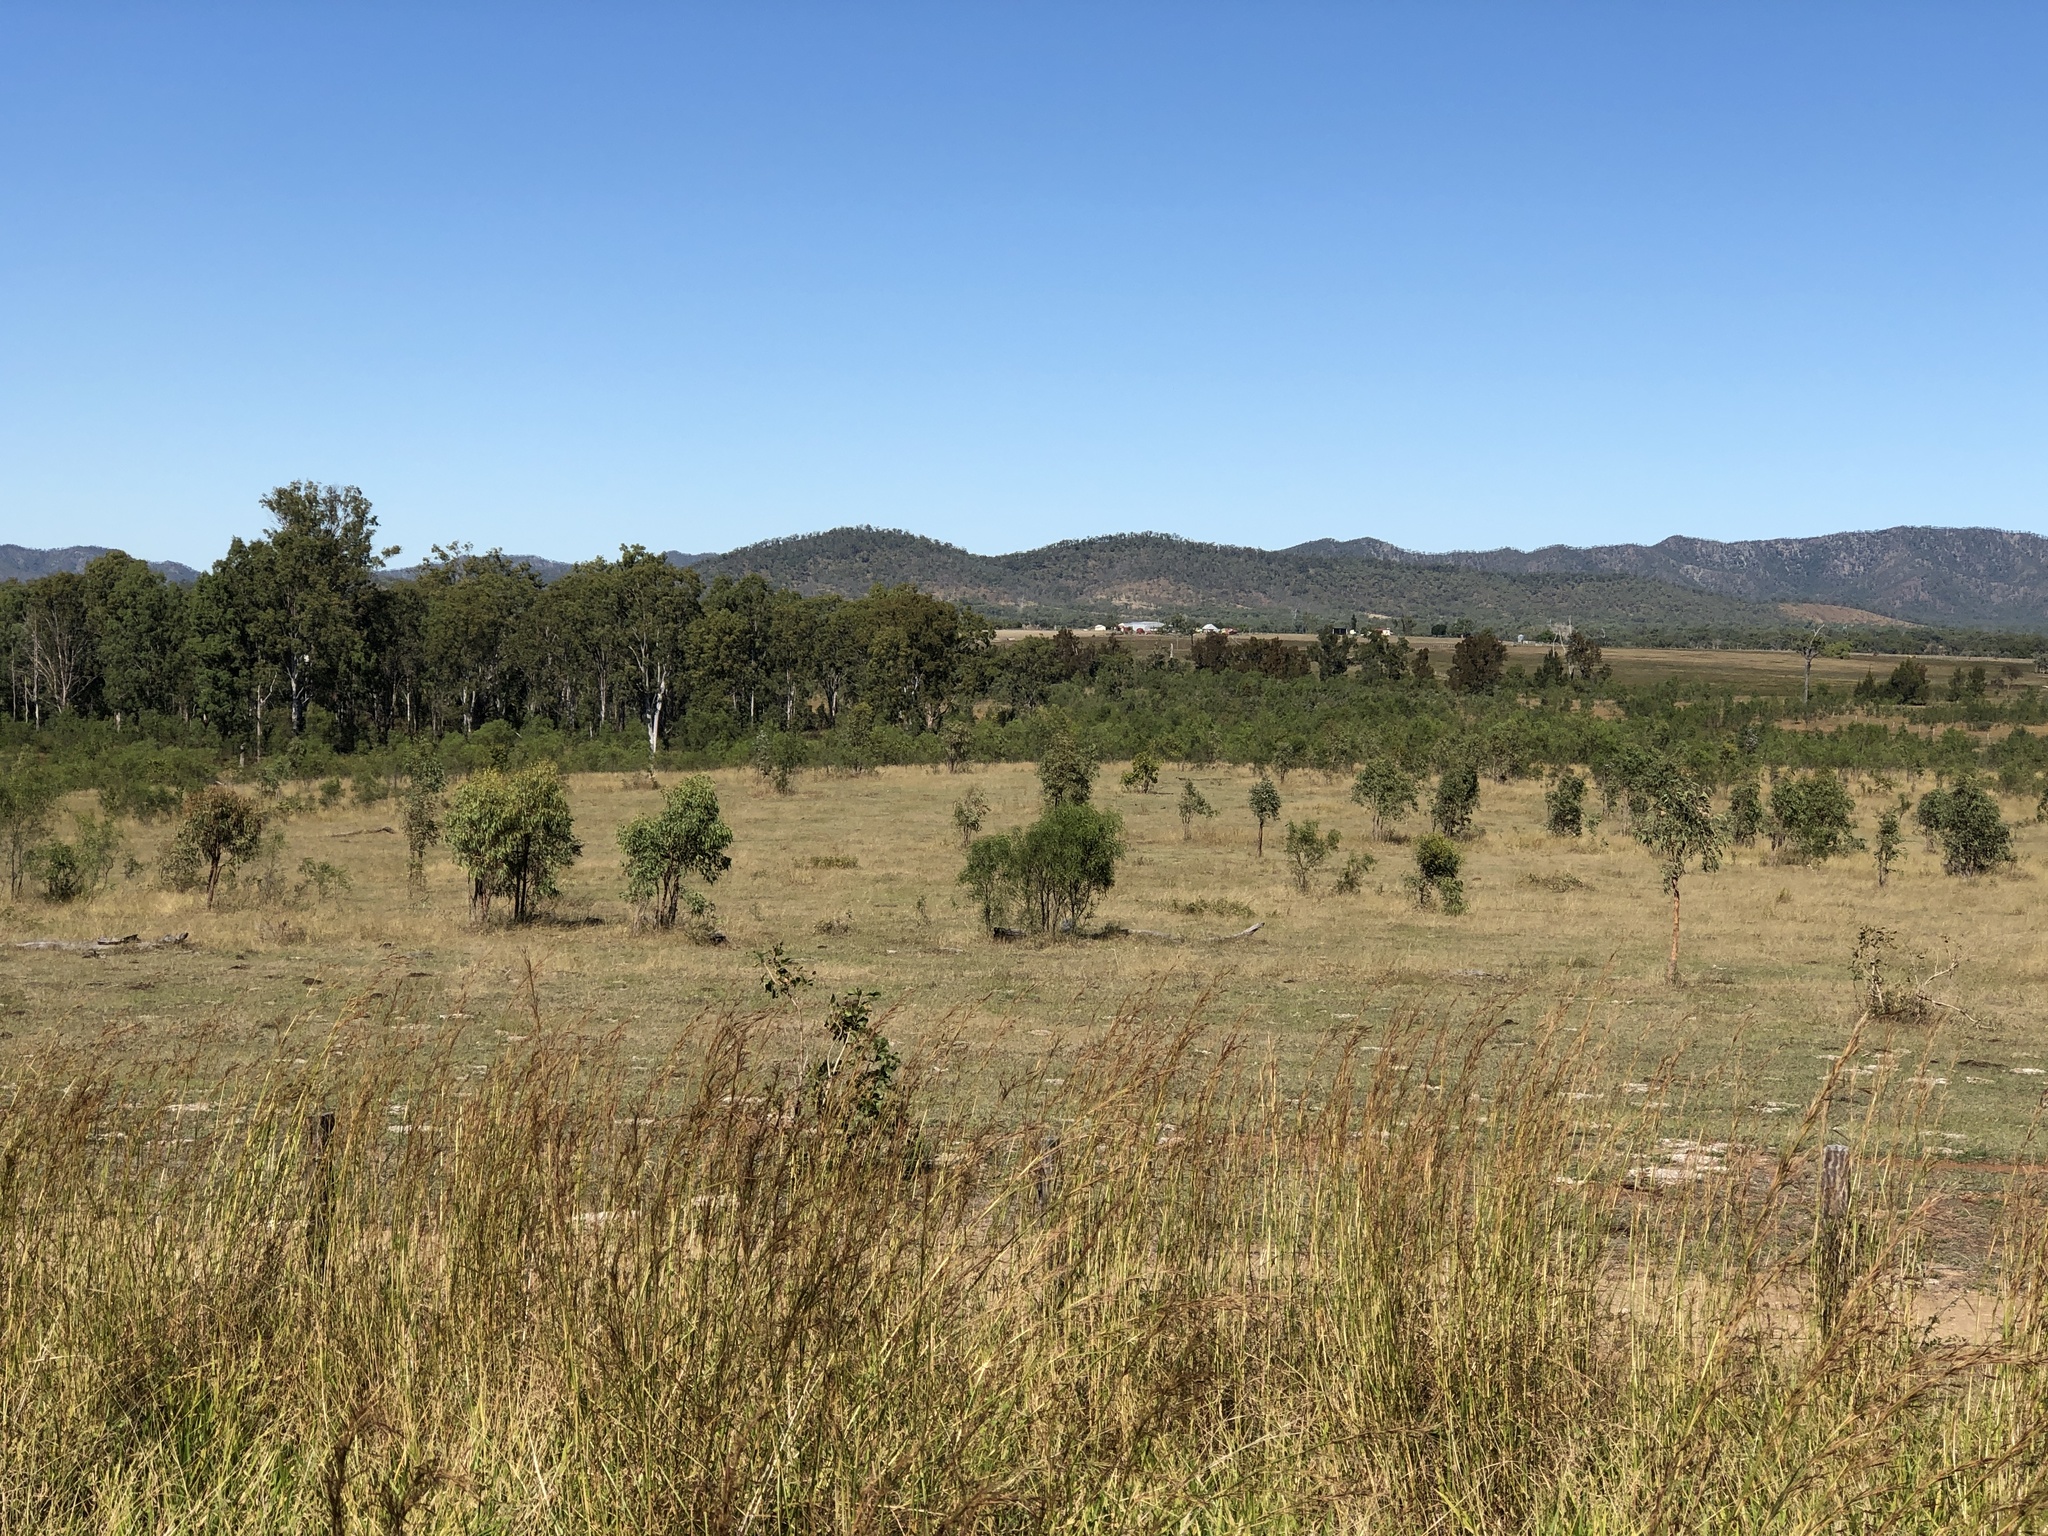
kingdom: Plantae
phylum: Tracheophyta
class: Liliopsida
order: Poales
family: Poaceae
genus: Hyparrhenia
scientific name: Hyparrhenia rufa
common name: Jaraguagrass
